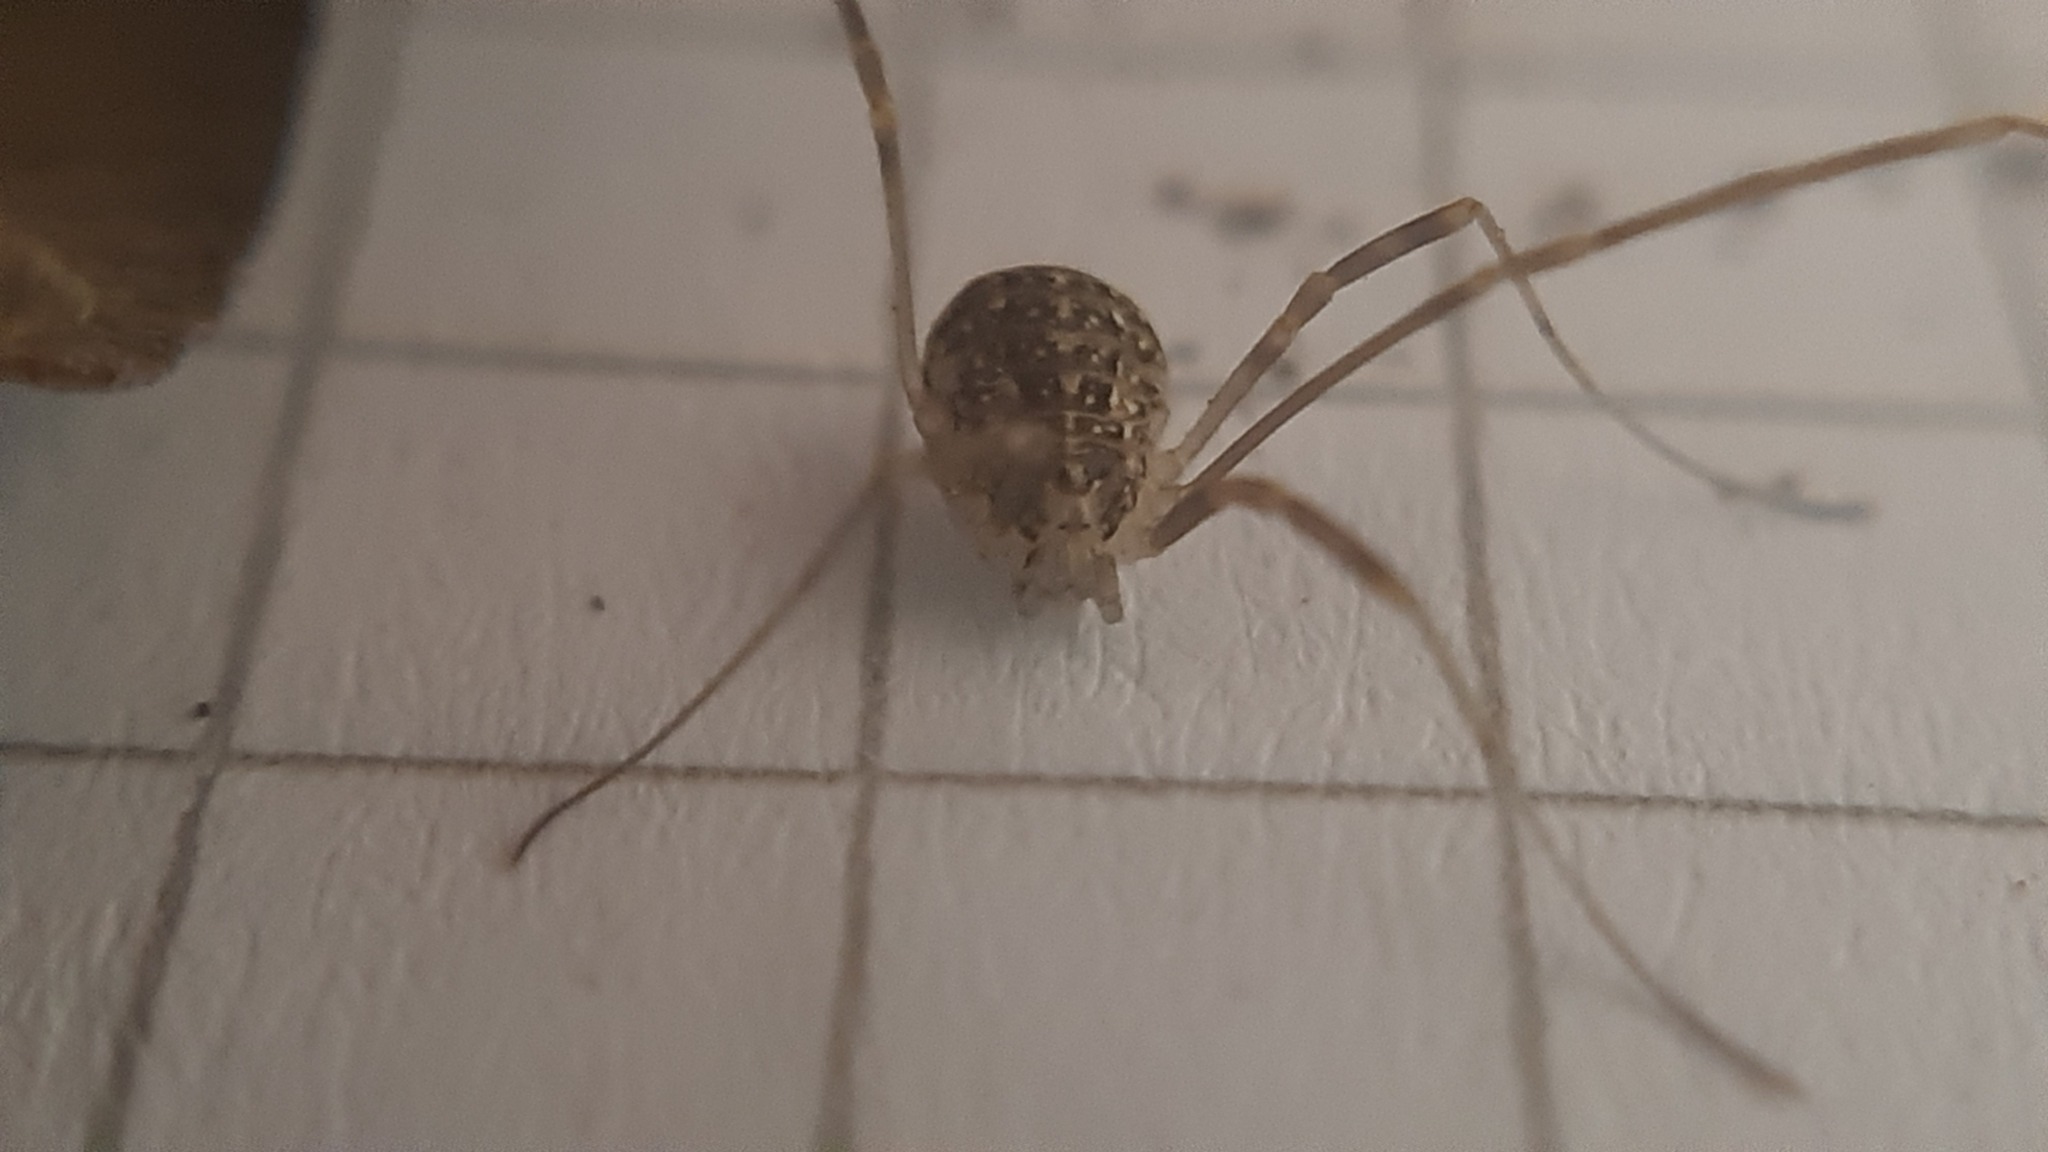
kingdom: Animalia
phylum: Arthropoda
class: Arachnida
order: Opiliones
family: Phalangiidae
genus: Opilio
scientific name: Opilio saxatilis
